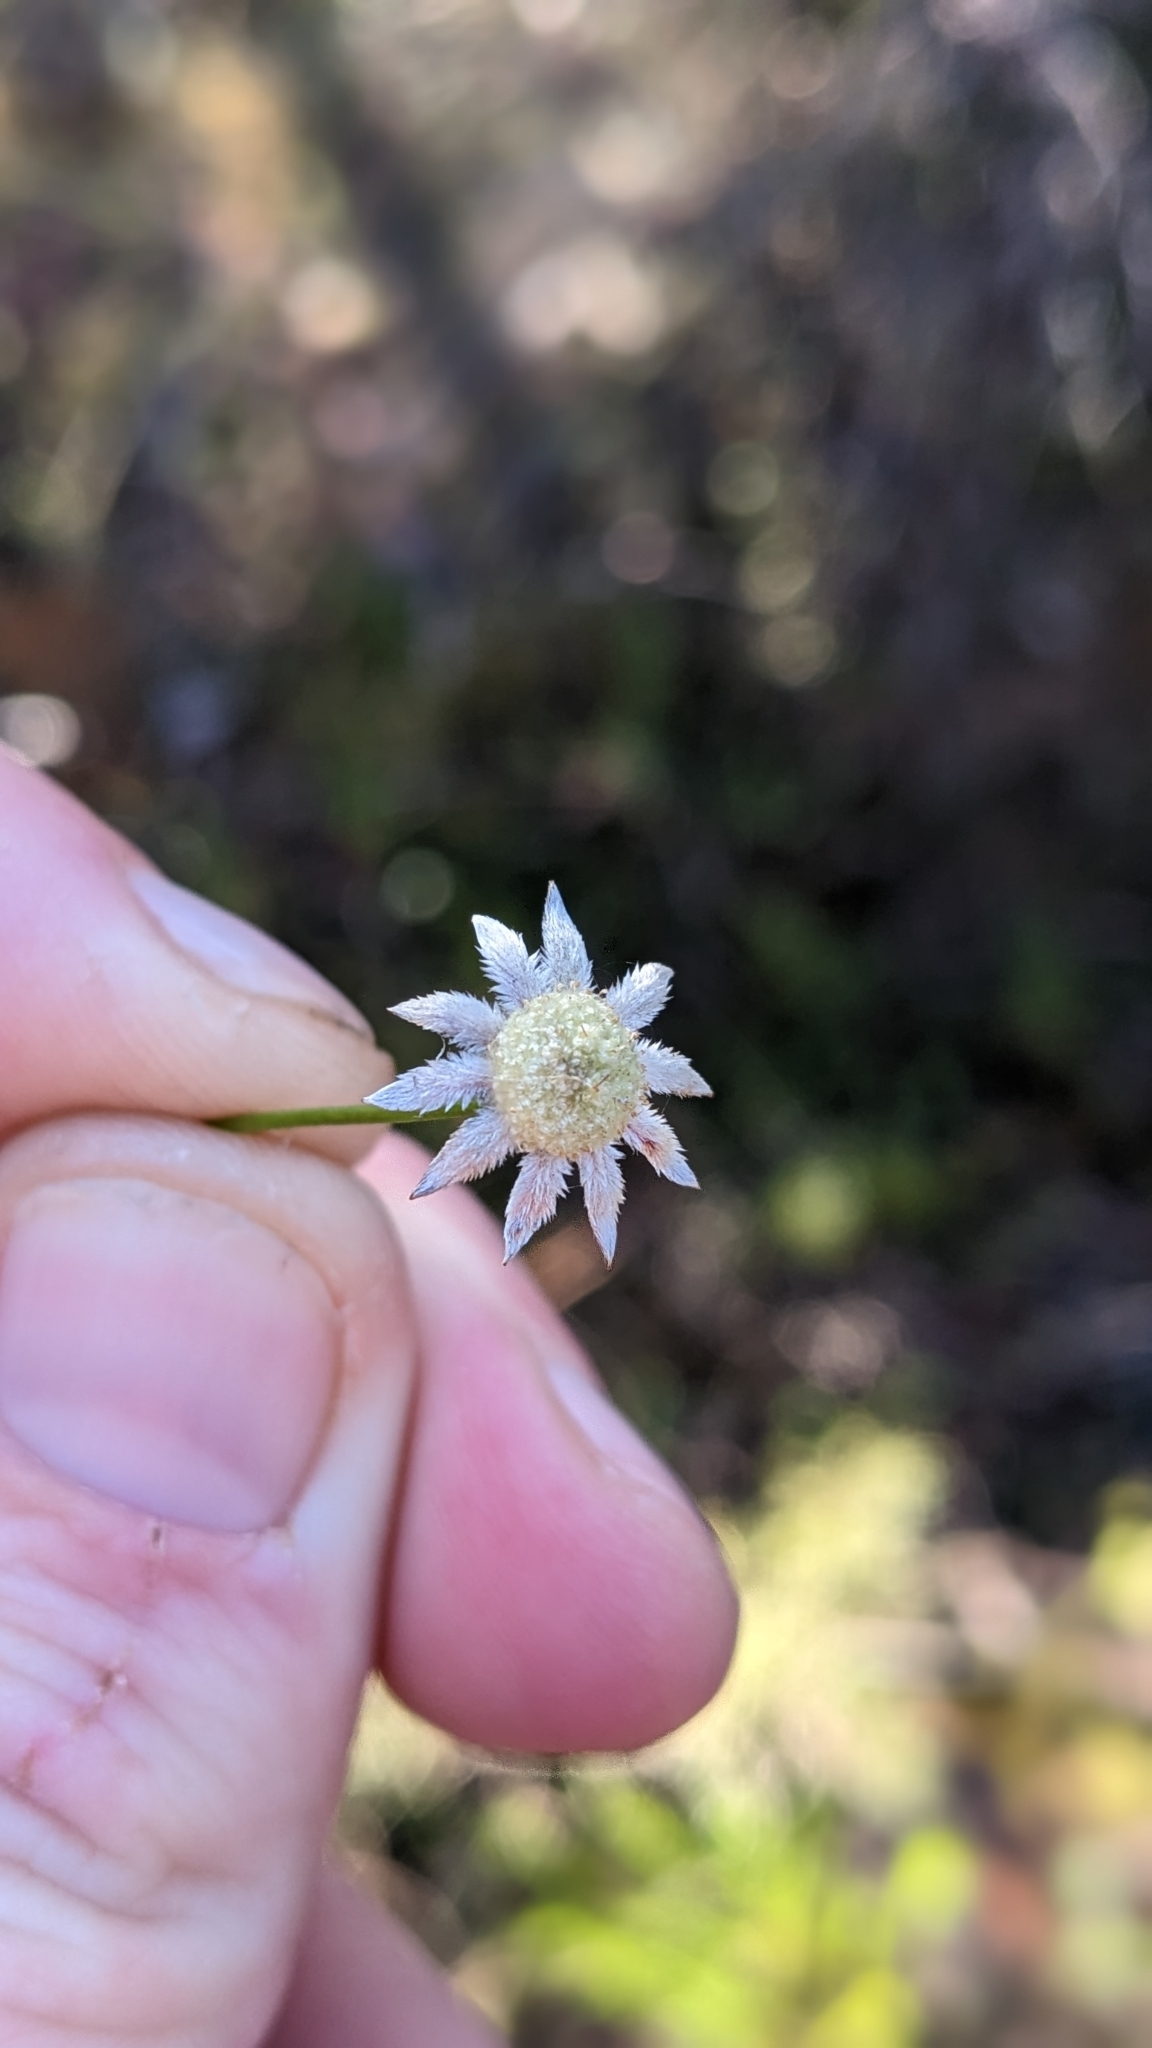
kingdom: Plantae
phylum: Tracheophyta
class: Magnoliopsida
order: Apiales
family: Apiaceae
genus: Actinotus
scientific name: Actinotus minor
